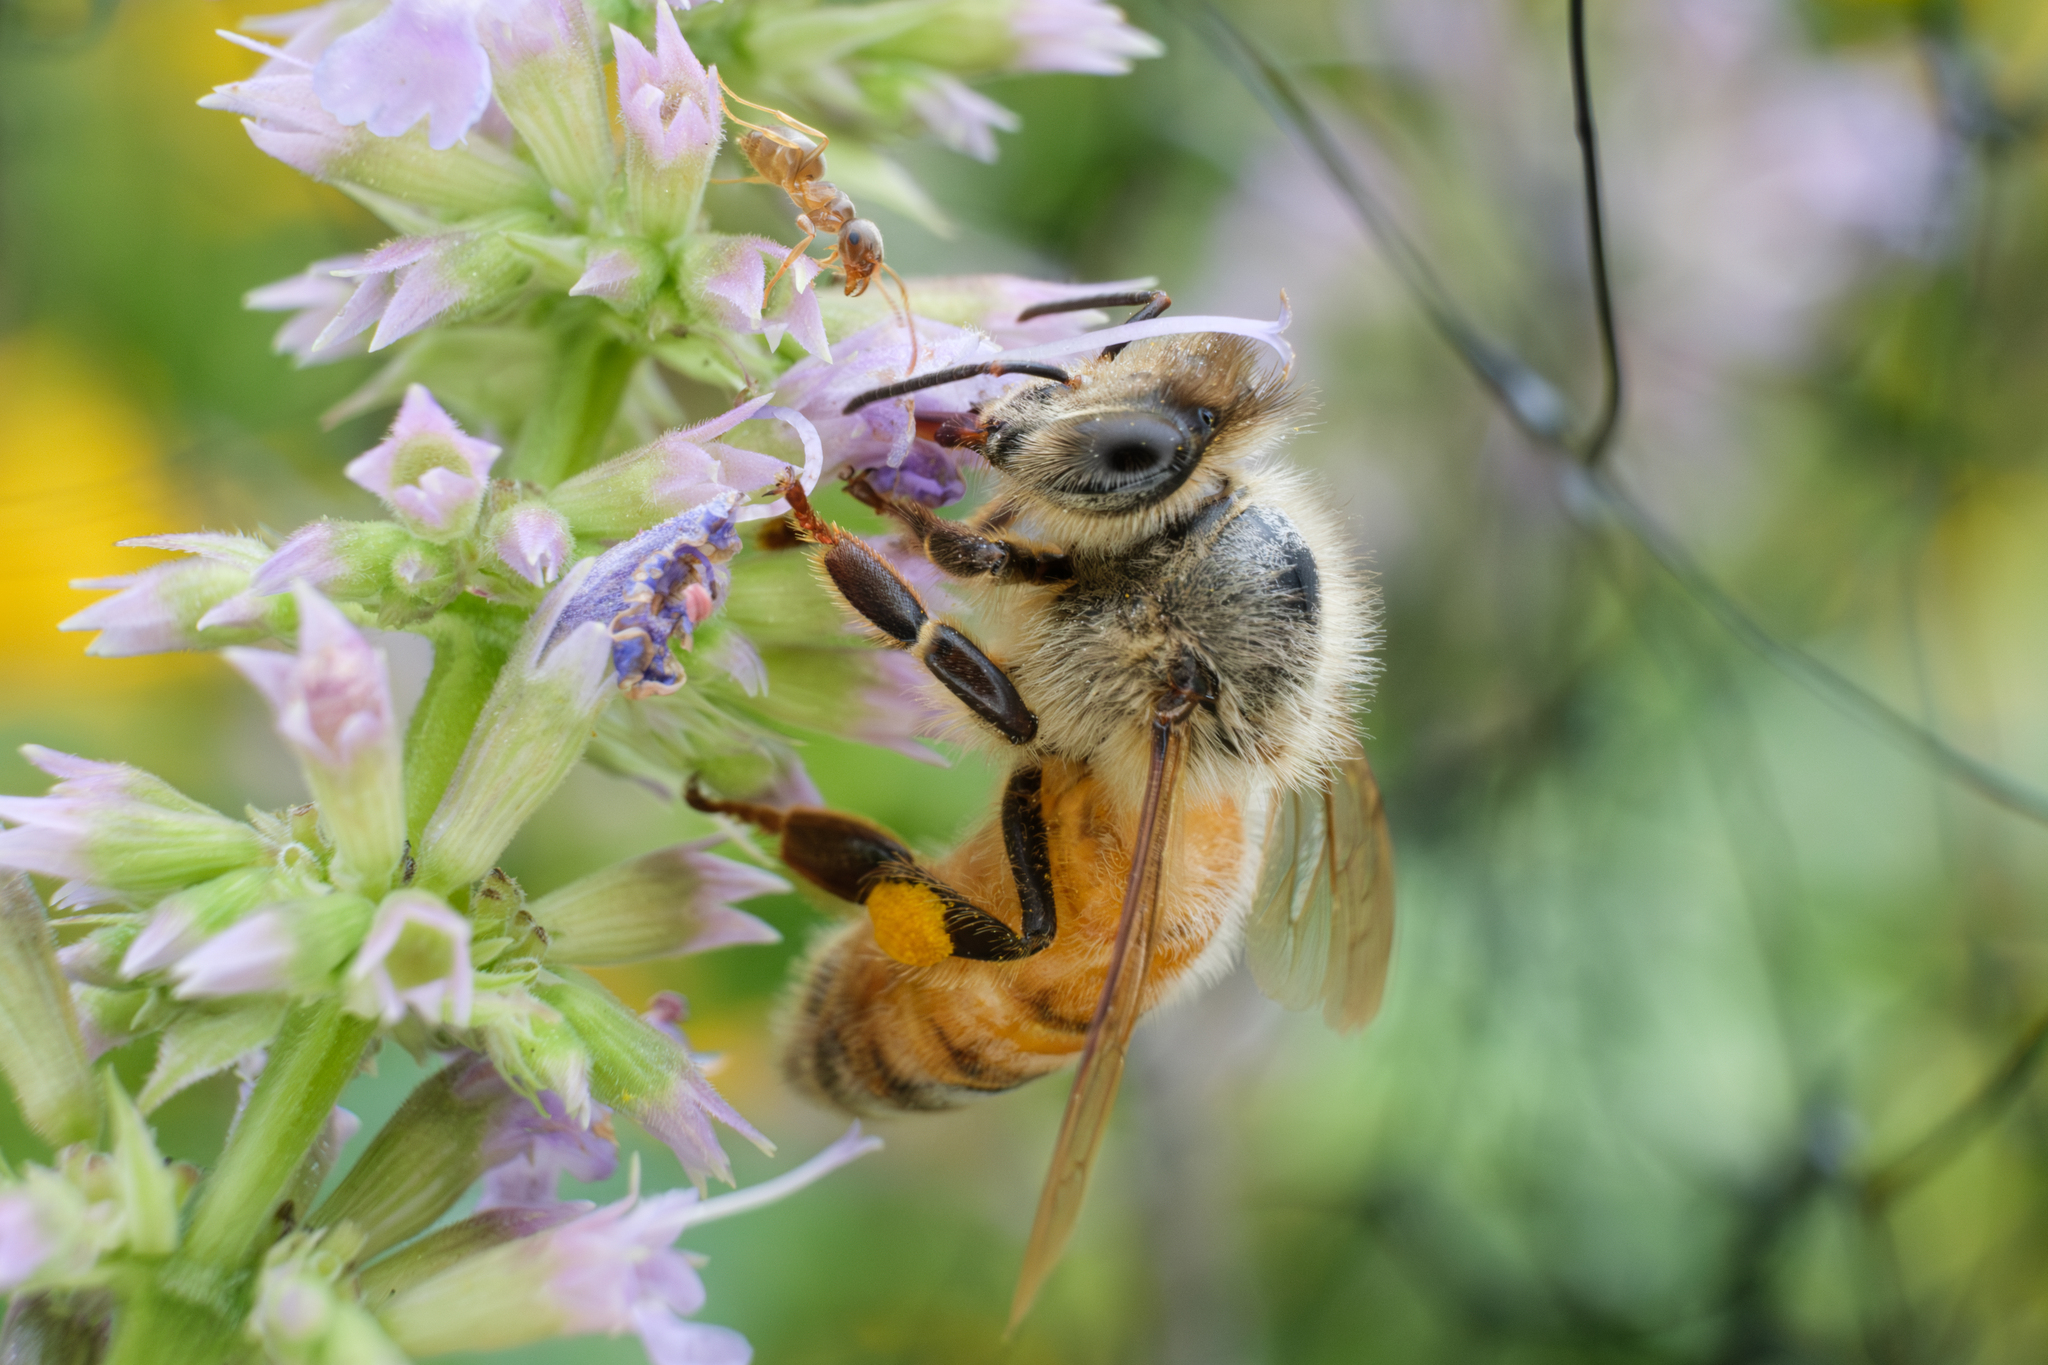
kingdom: Animalia
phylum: Arthropoda
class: Insecta
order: Hymenoptera
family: Apidae
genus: Apis
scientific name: Apis mellifera
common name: Honey bee
